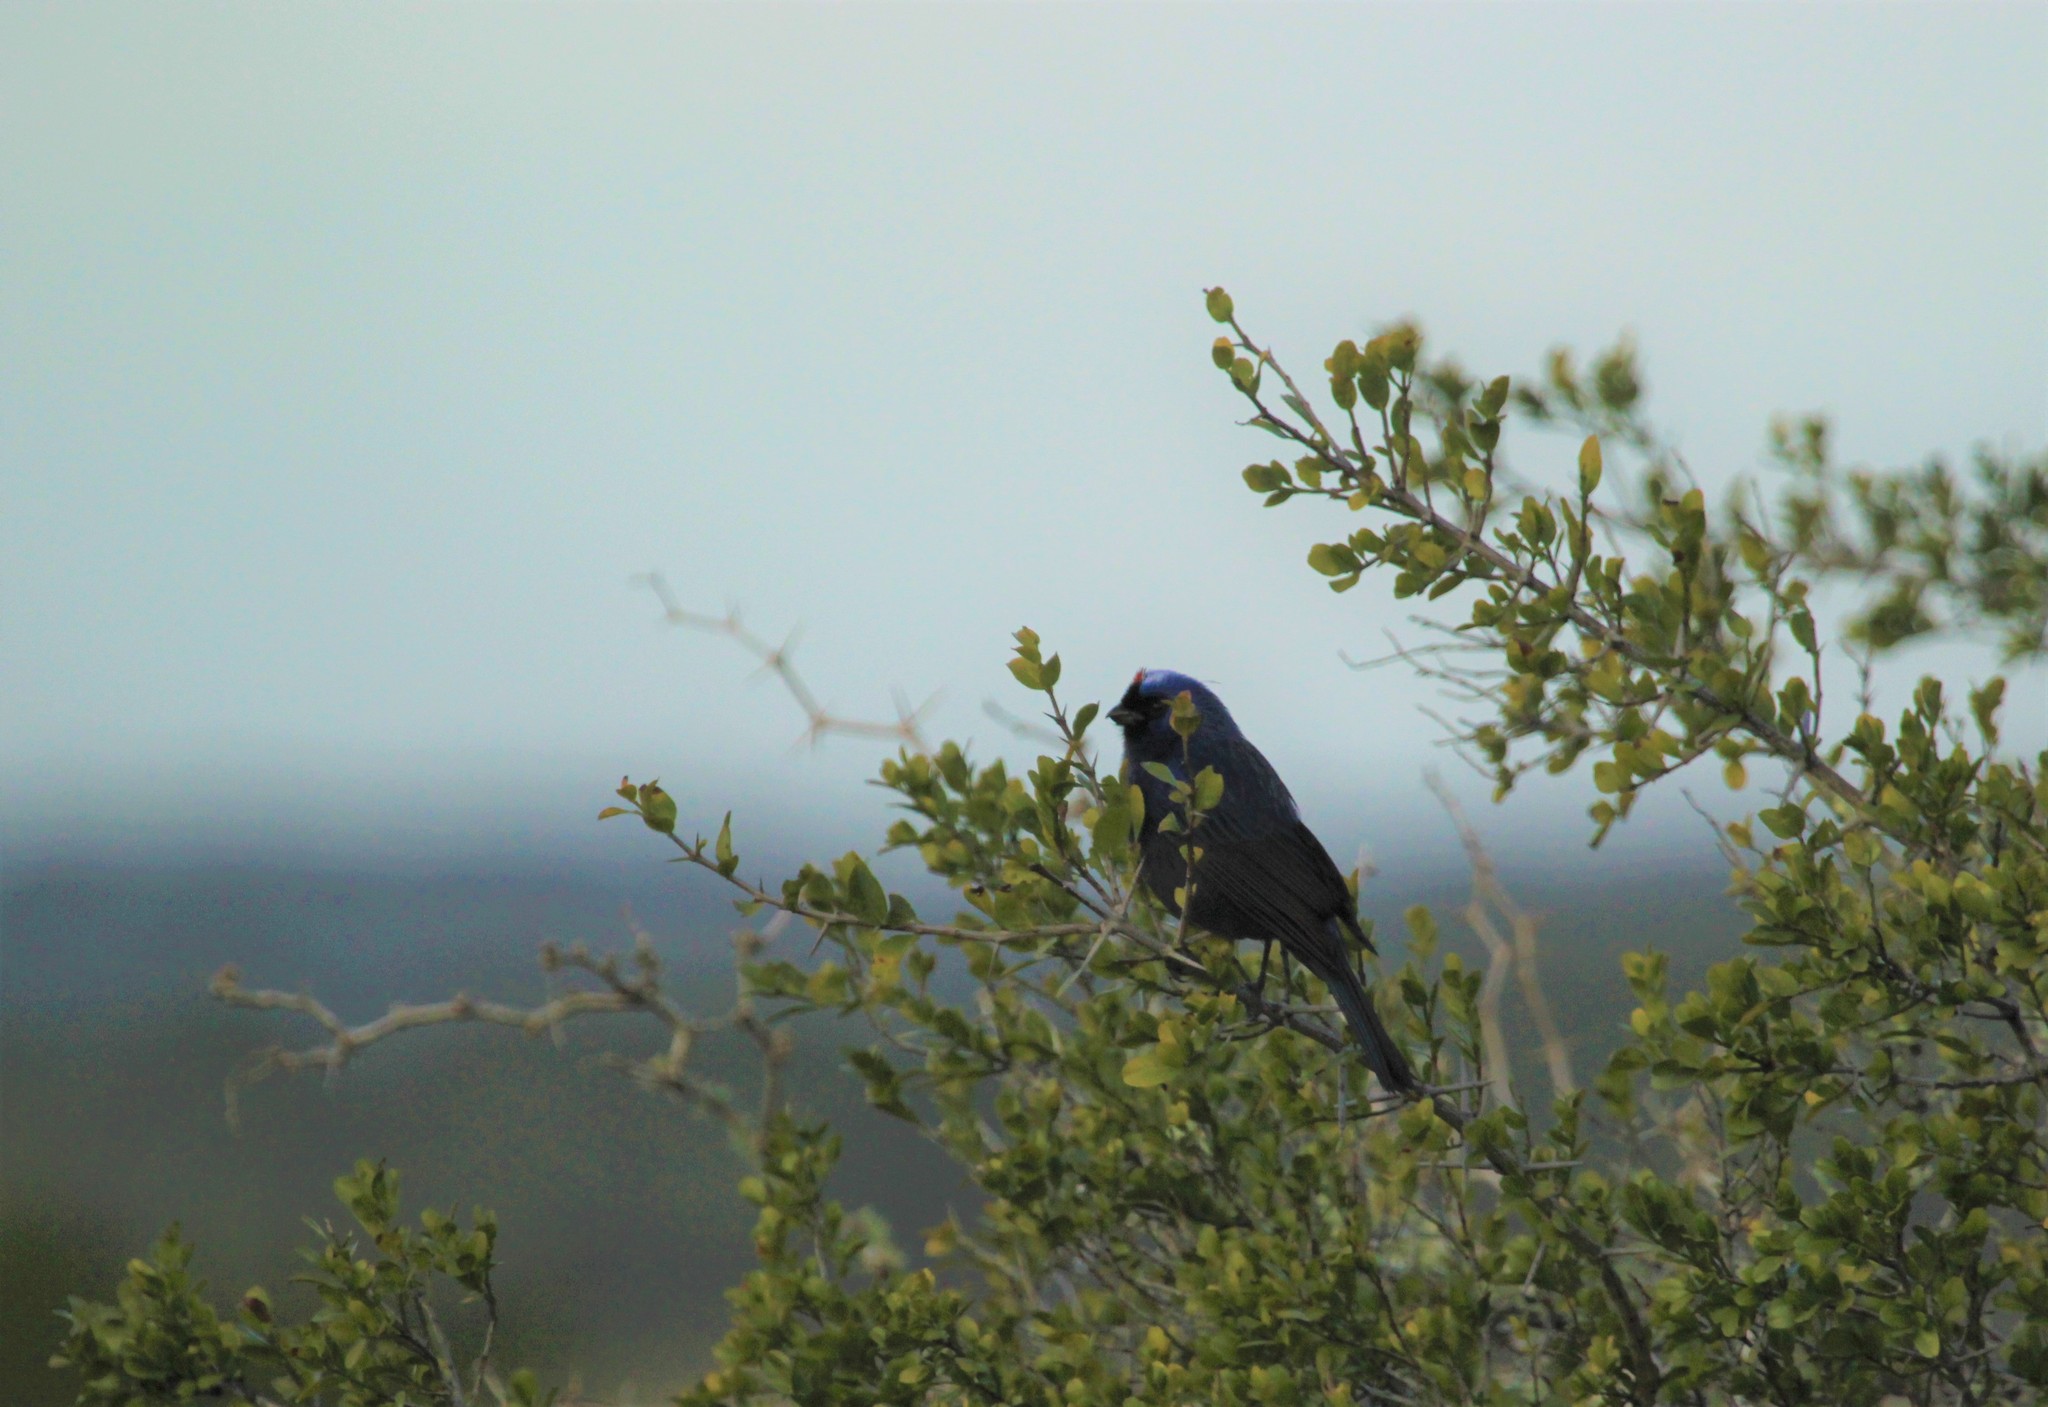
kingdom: Animalia
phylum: Chordata
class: Aves
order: Passeriformes
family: Thraupidae
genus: Stephanophorus
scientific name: Stephanophorus diadematus
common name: Diademed tanager
